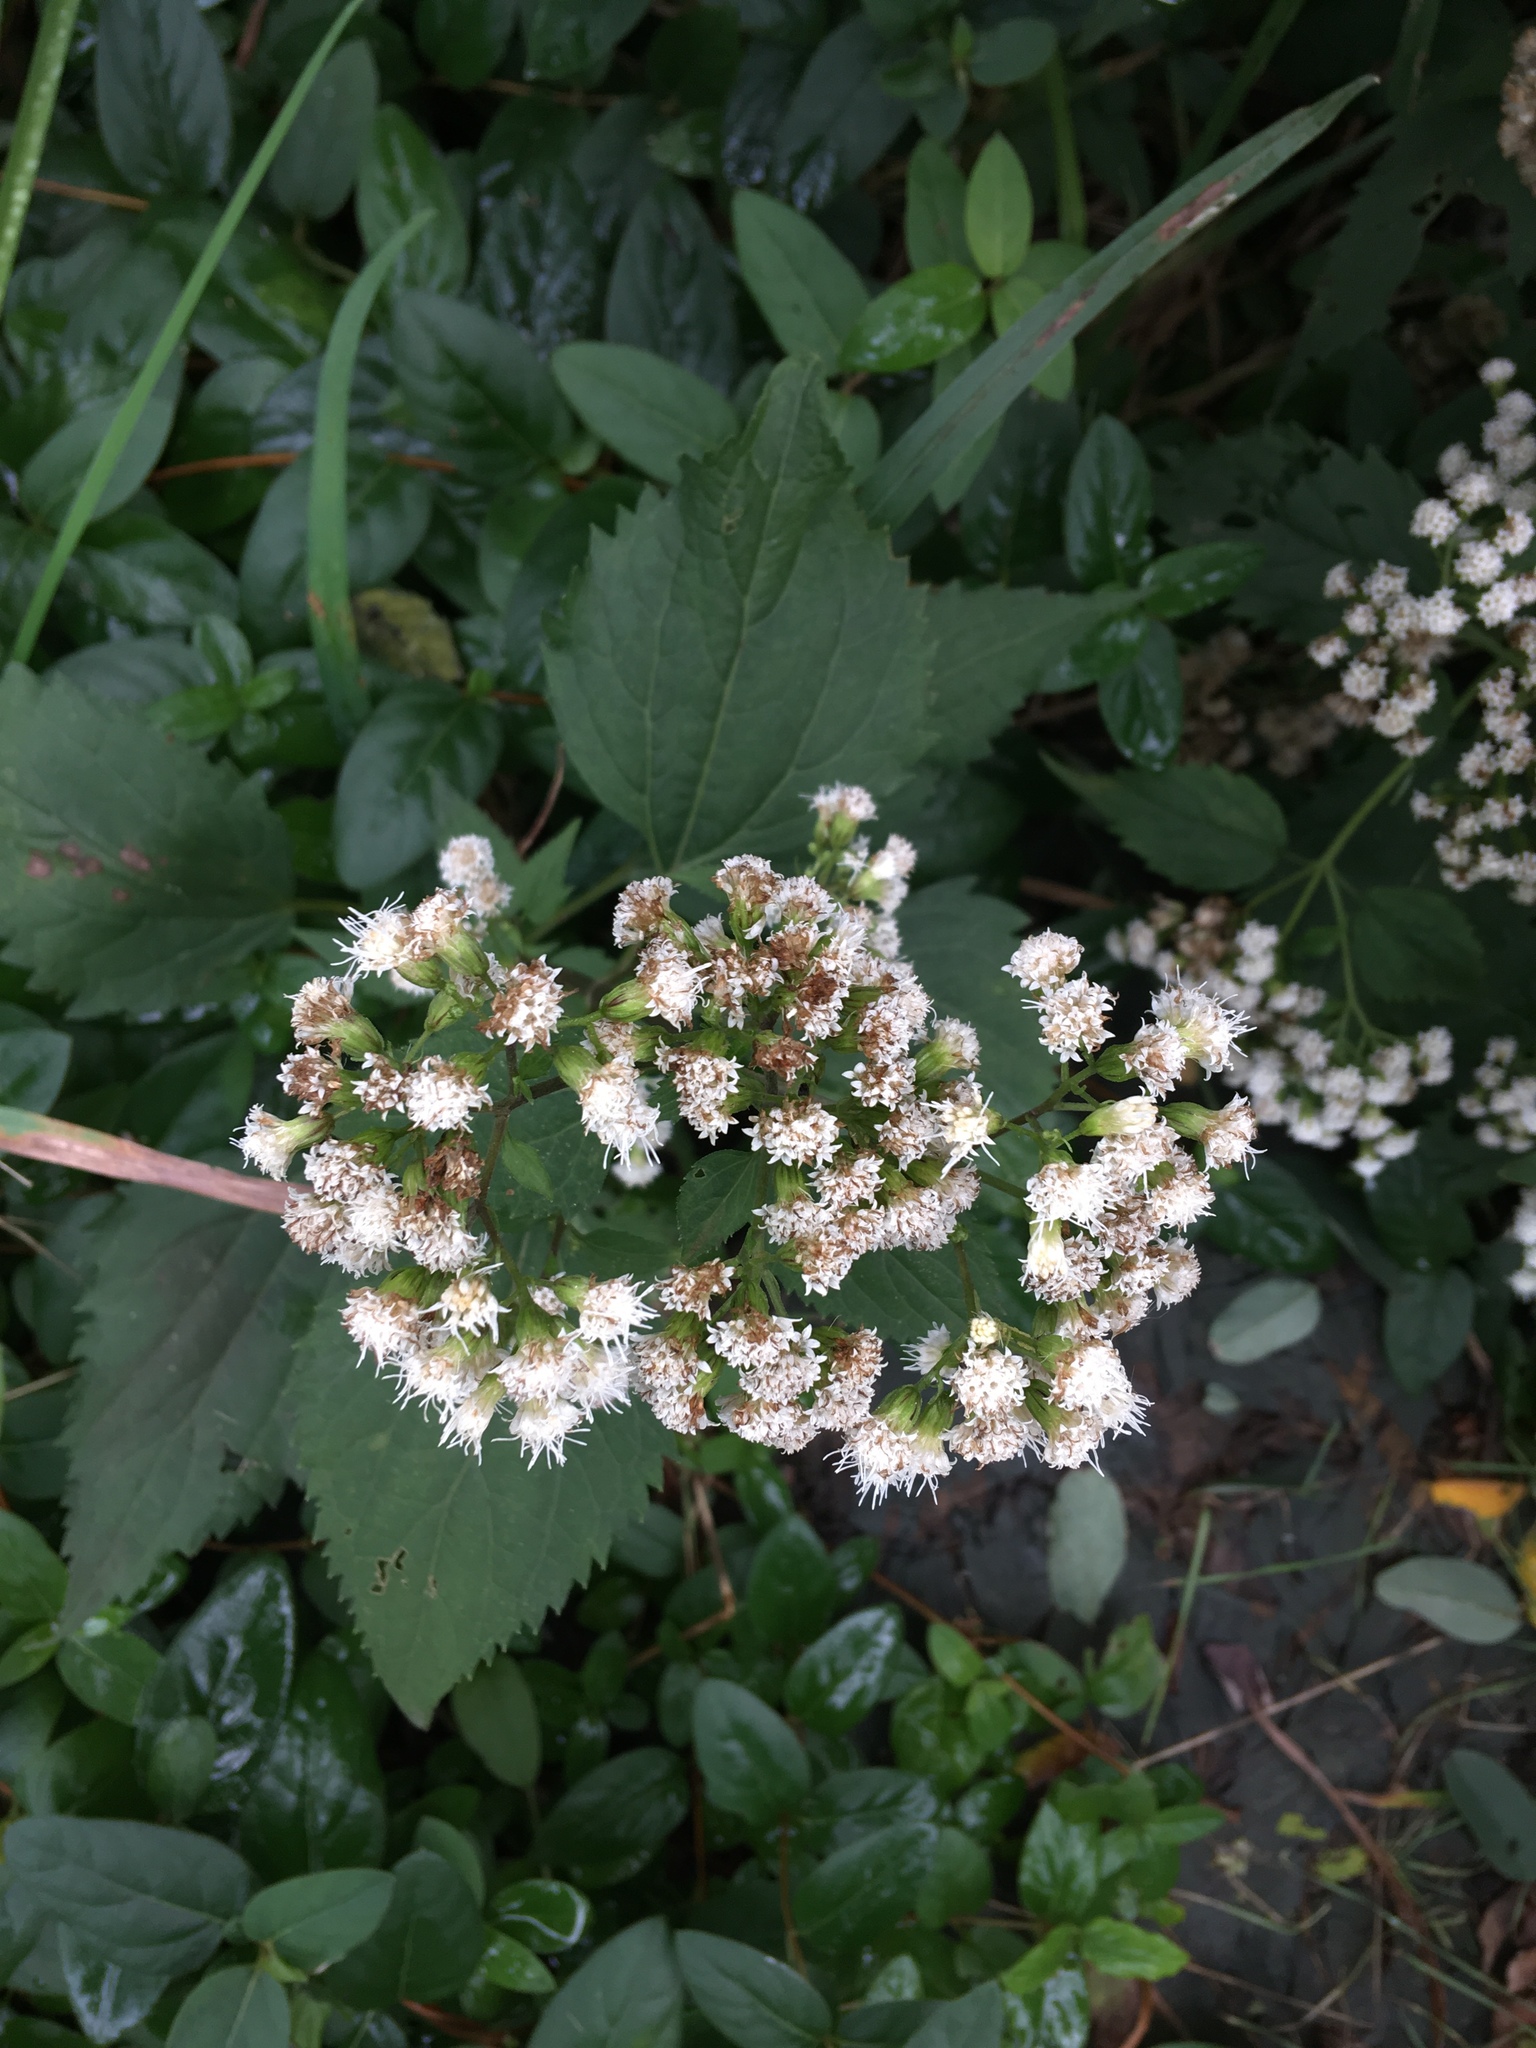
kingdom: Plantae
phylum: Tracheophyta
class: Magnoliopsida
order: Asterales
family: Asteraceae
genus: Ageratina
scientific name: Ageratina altissima
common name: White snakeroot
